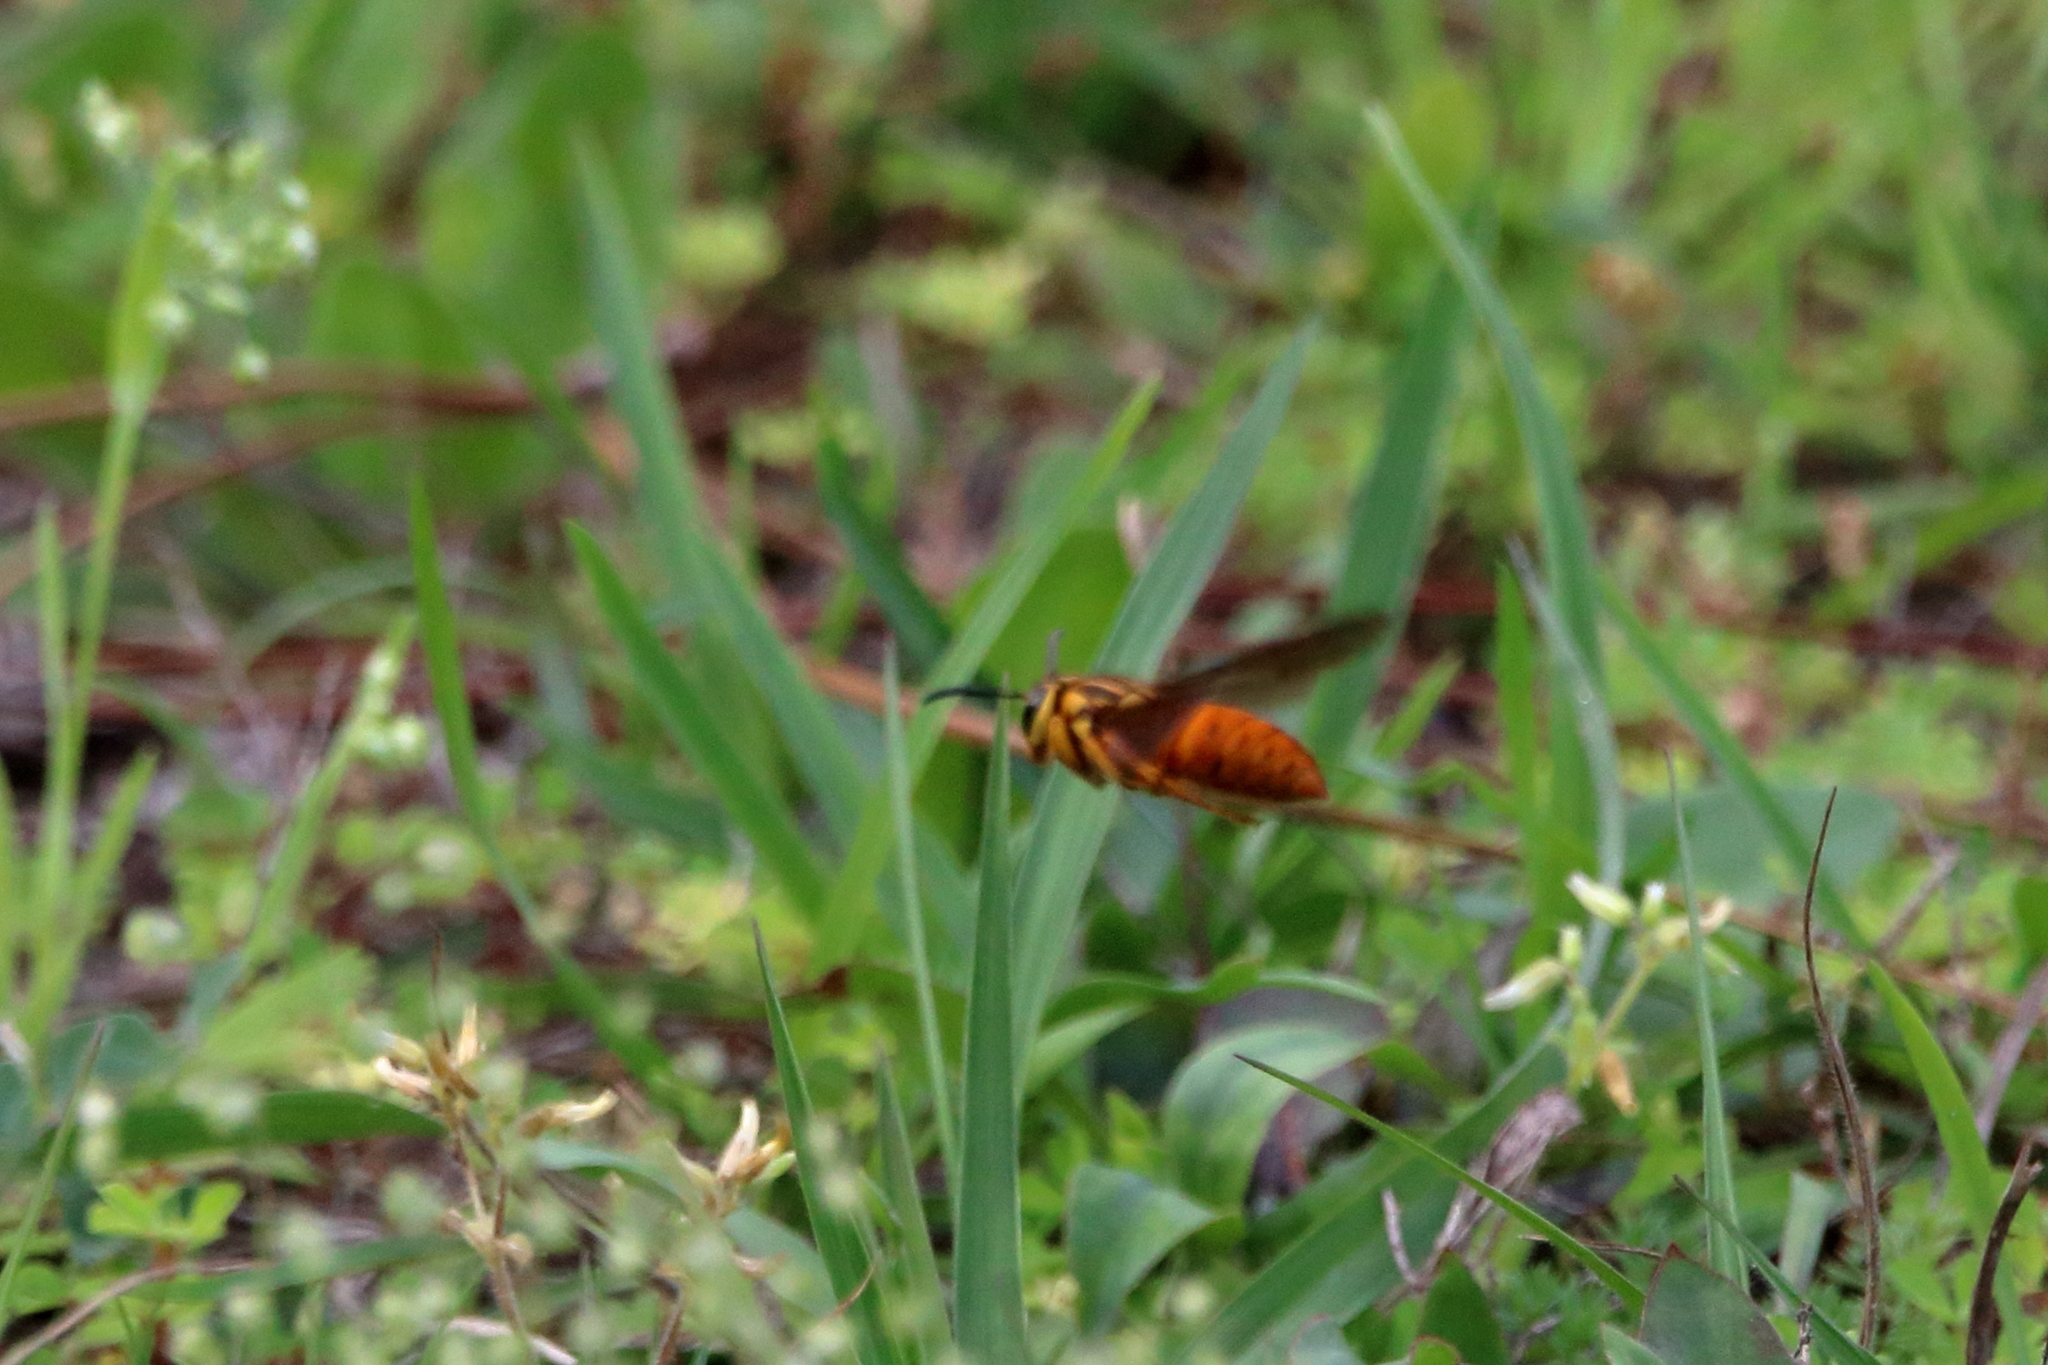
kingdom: Animalia
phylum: Arthropoda
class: Insecta
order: Hymenoptera
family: Vespidae
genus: Vespula
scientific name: Vespula squamosa
